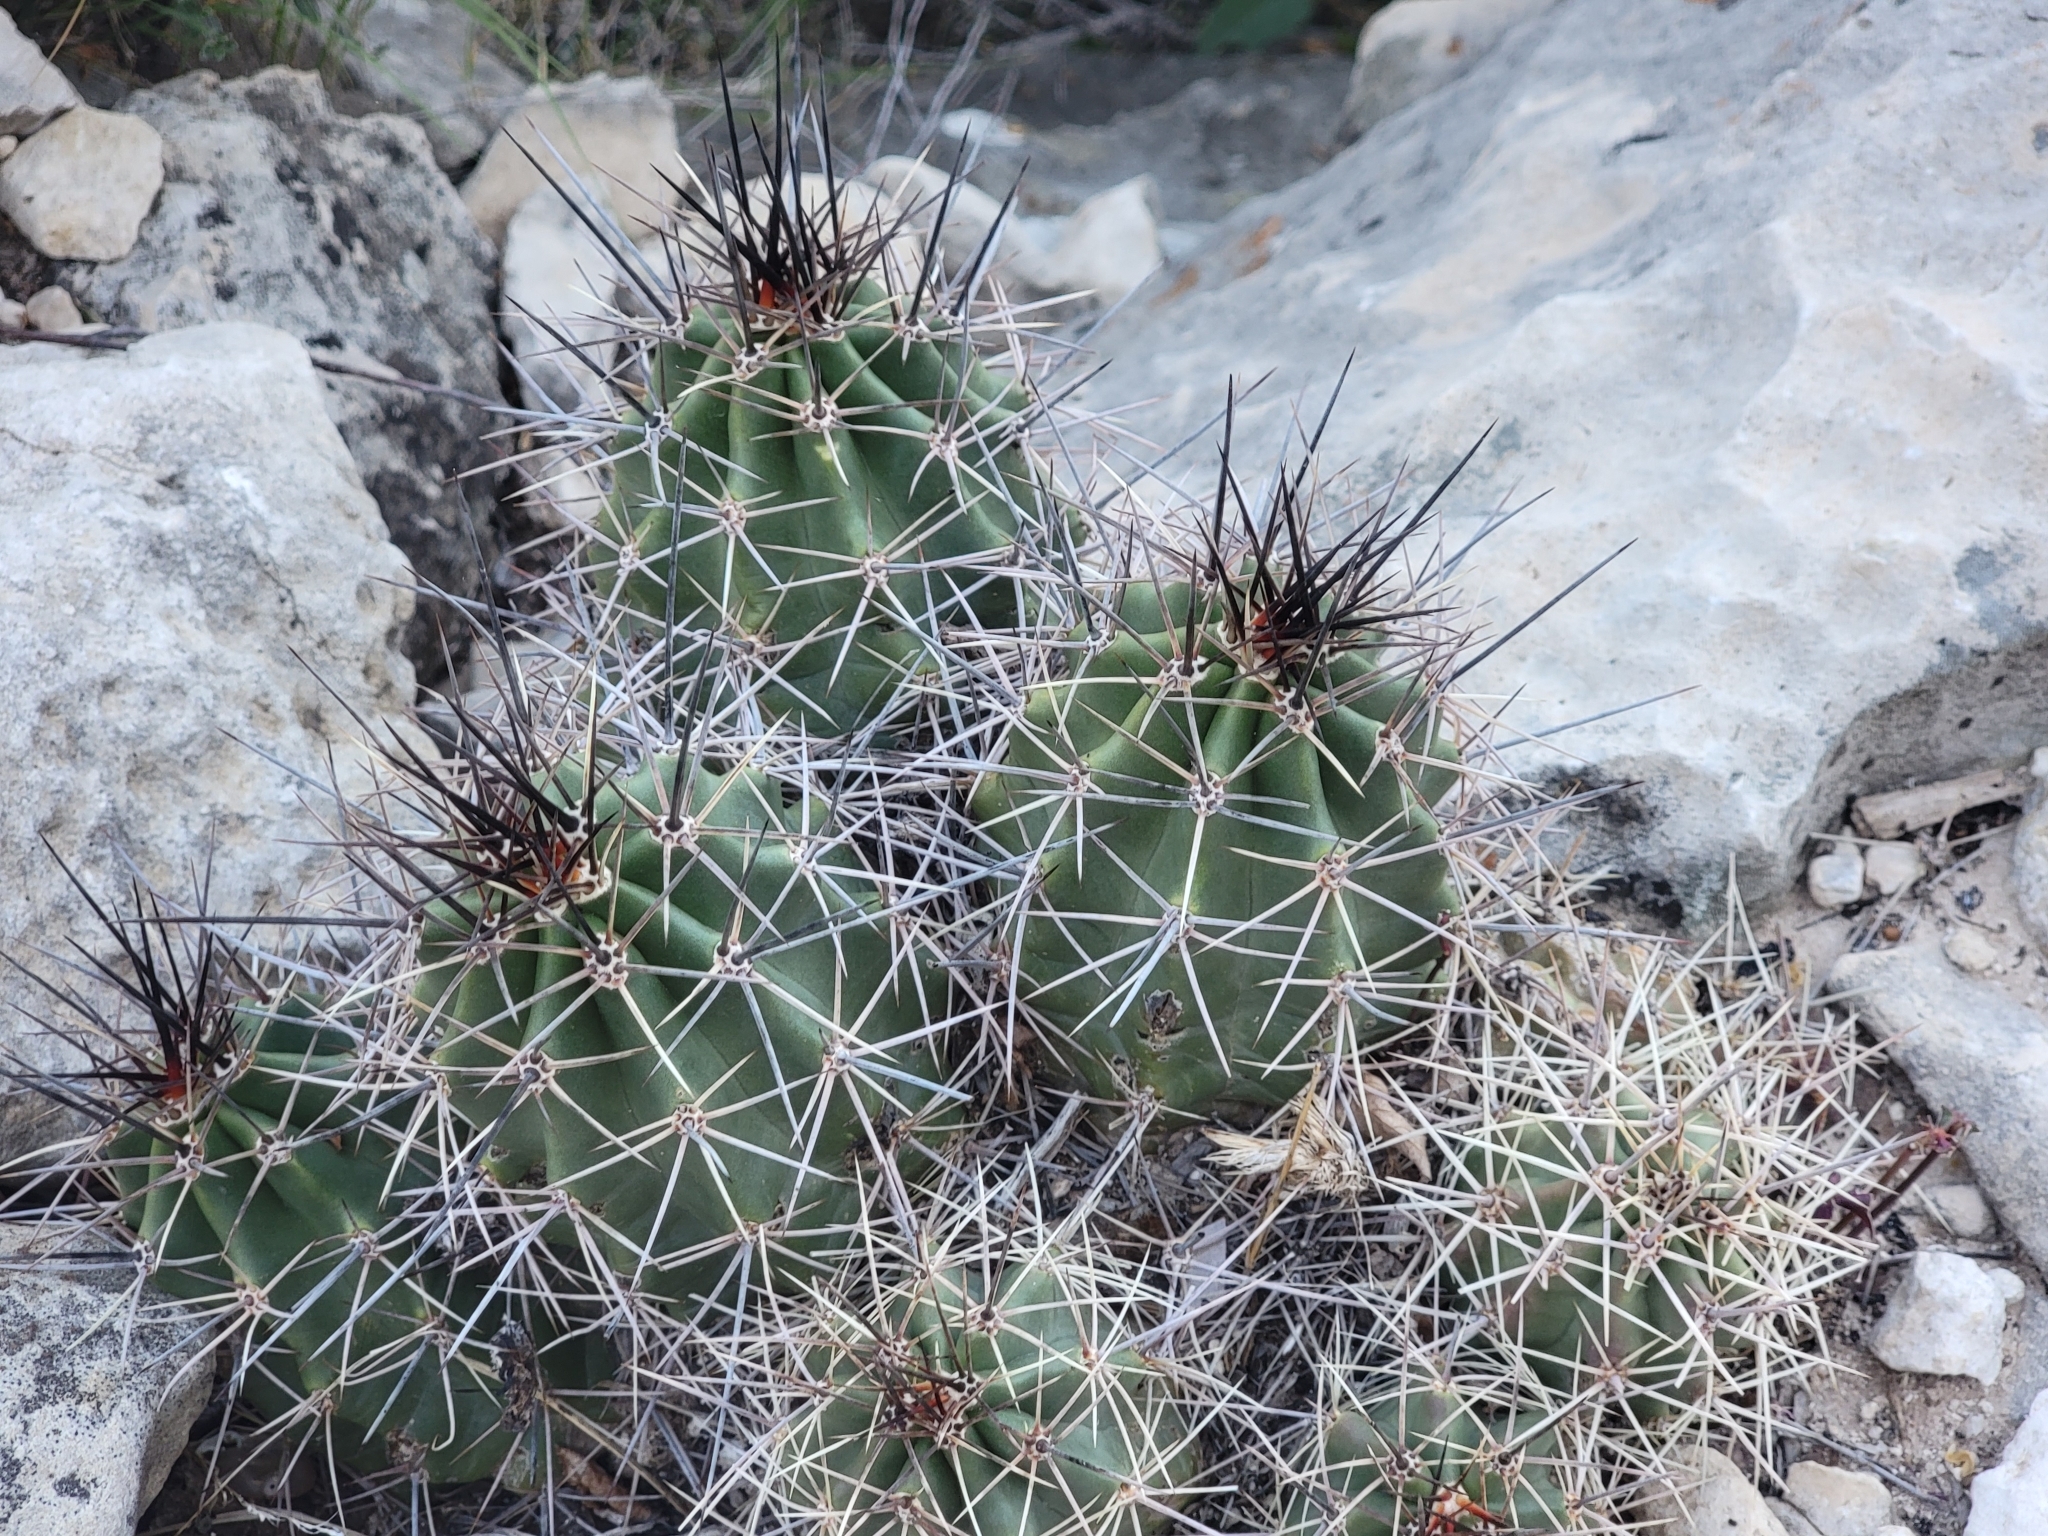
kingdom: Plantae
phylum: Tracheophyta
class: Magnoliopsida
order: Caryophyllales
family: Cactaceae
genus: Echinocereus
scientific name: Echinocereus coccineus
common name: Scarlet hedgehog cactus
